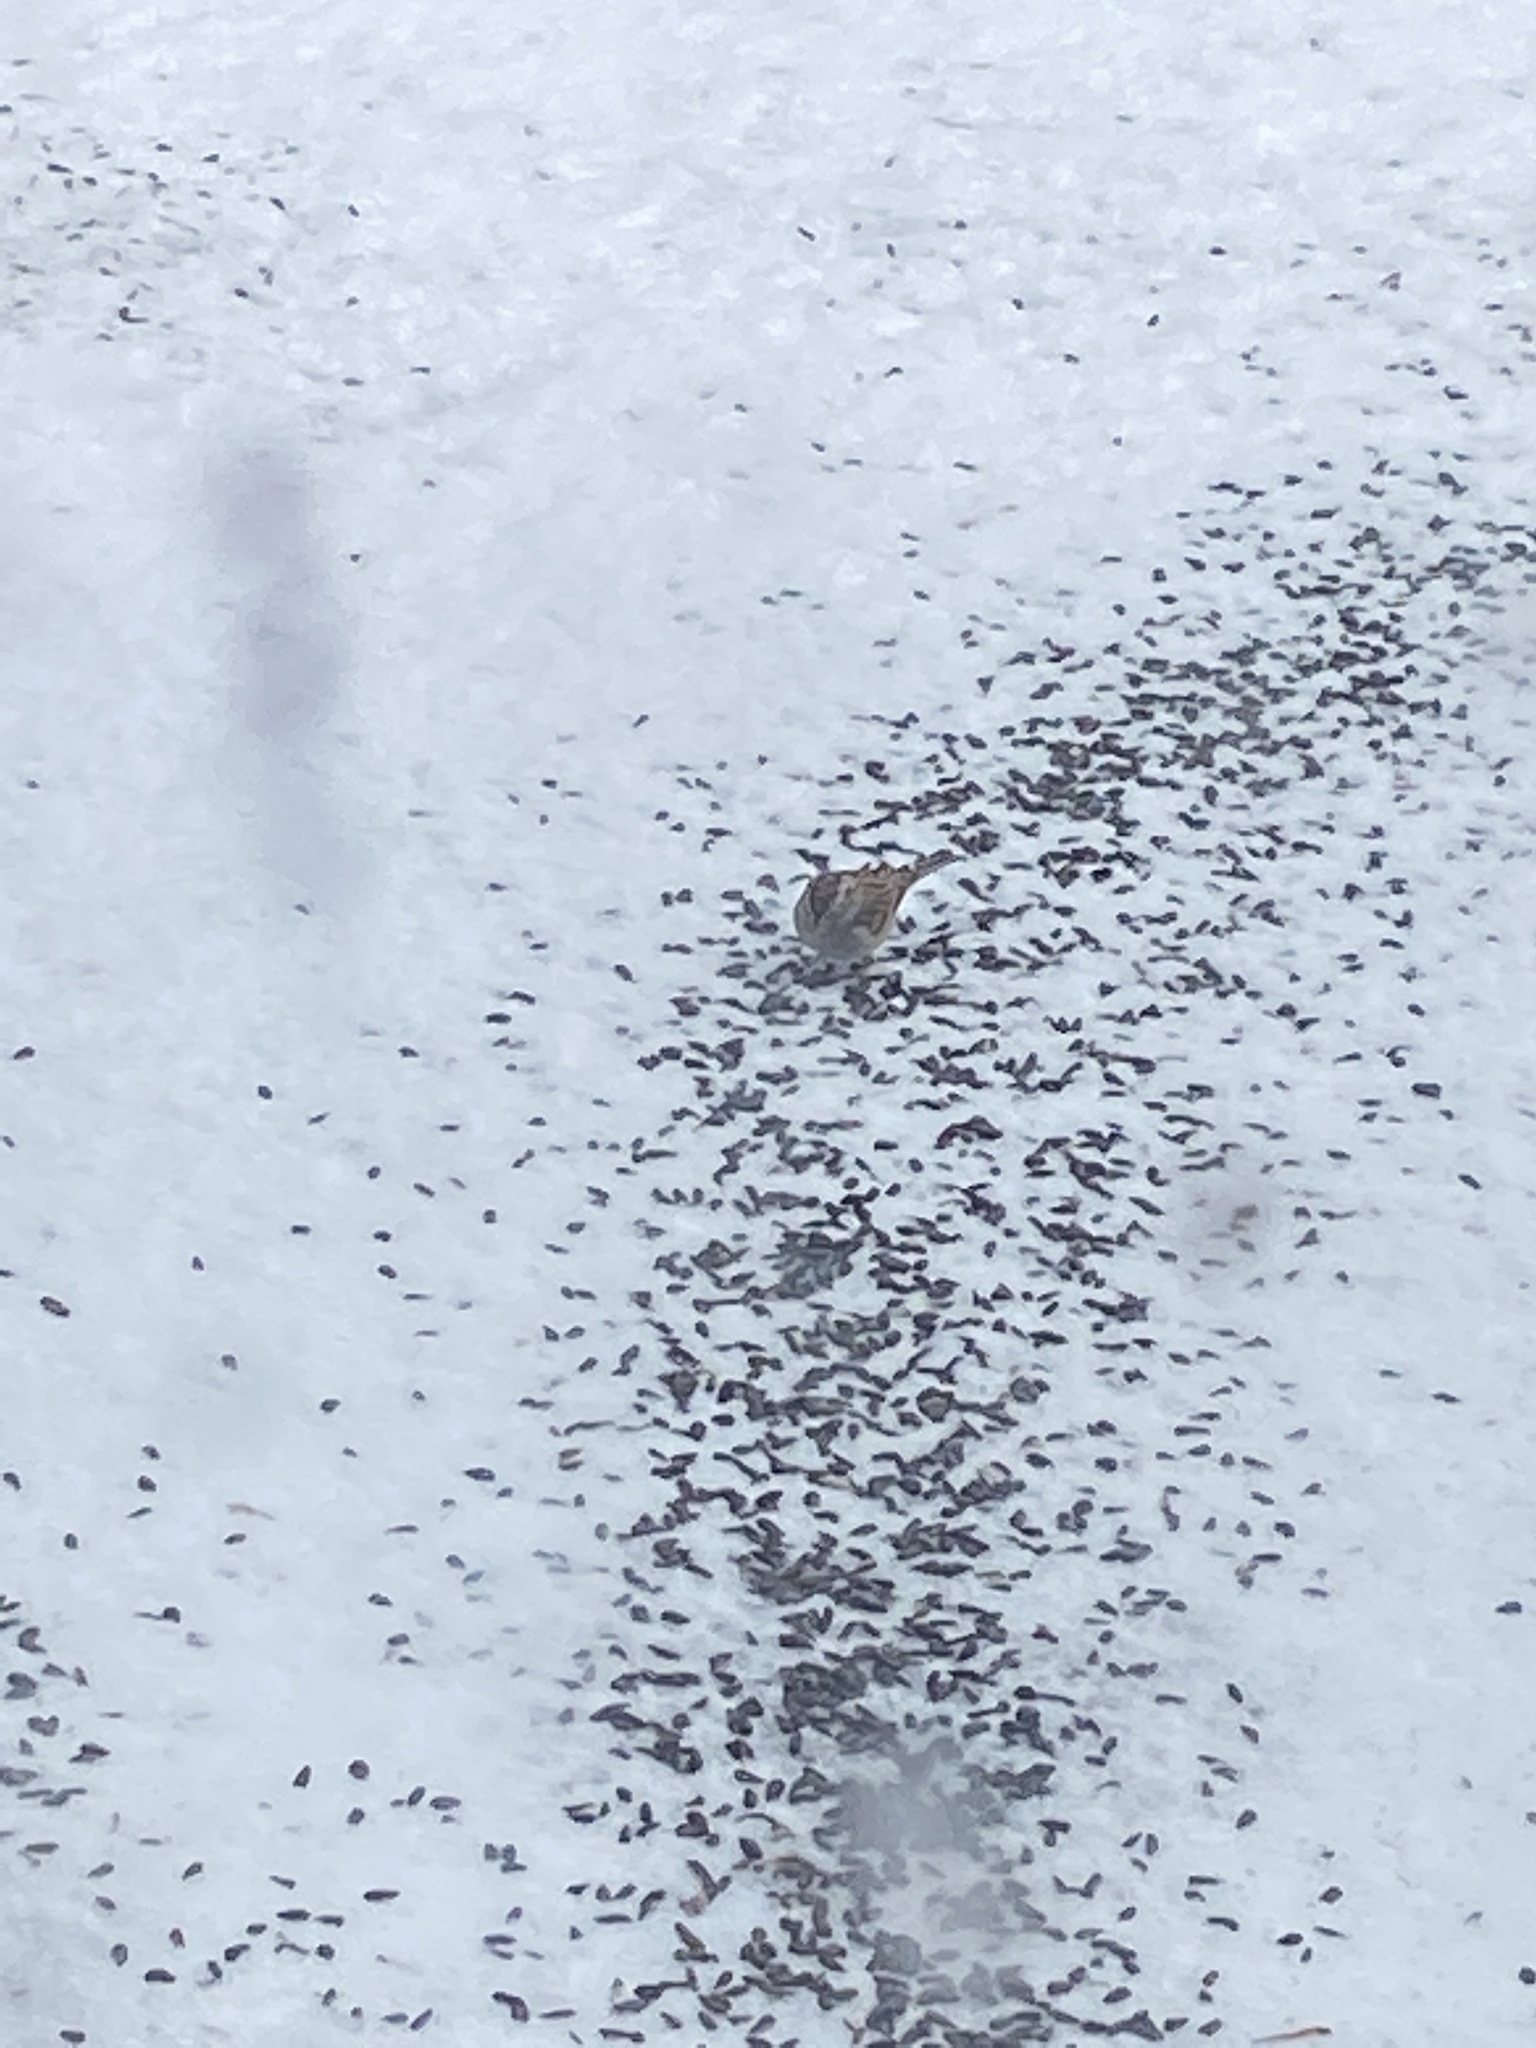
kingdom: Animalia
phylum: Chordata
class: Aves
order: Passeriformes
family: Passerellidae
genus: Spizella
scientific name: Spizella passerina
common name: Chipping sparrow
